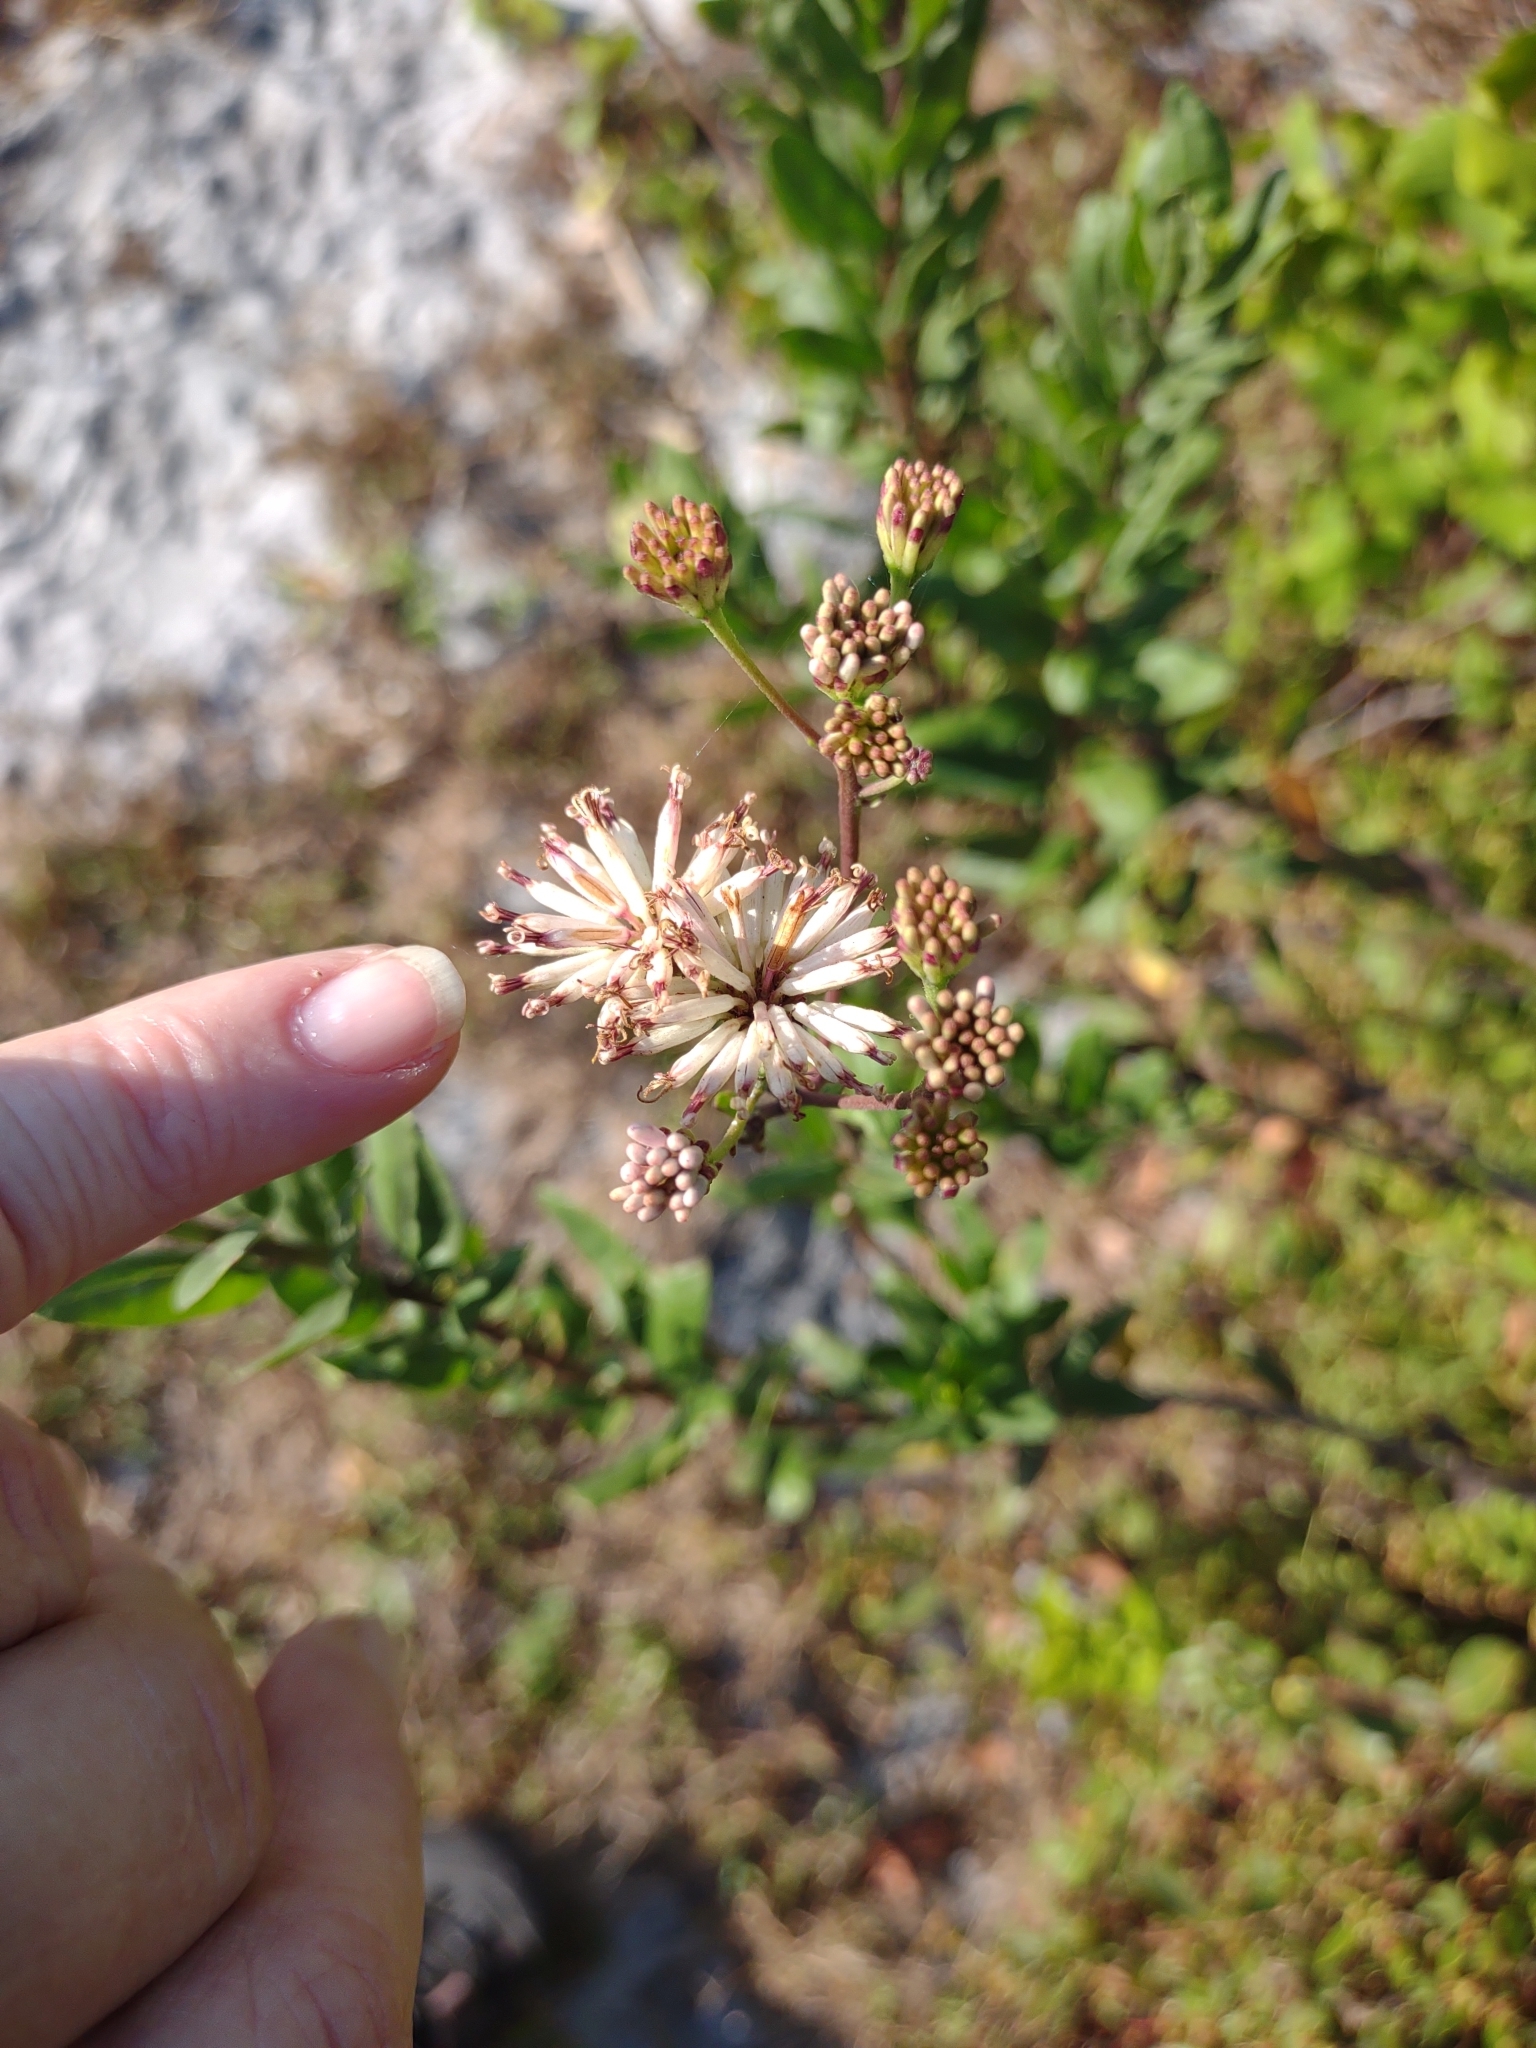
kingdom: Plantae
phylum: Tracheophyta
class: Magnoliopsida
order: Asterales
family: Asteraceae
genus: Palafoxia
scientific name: Palafoxia feayi
